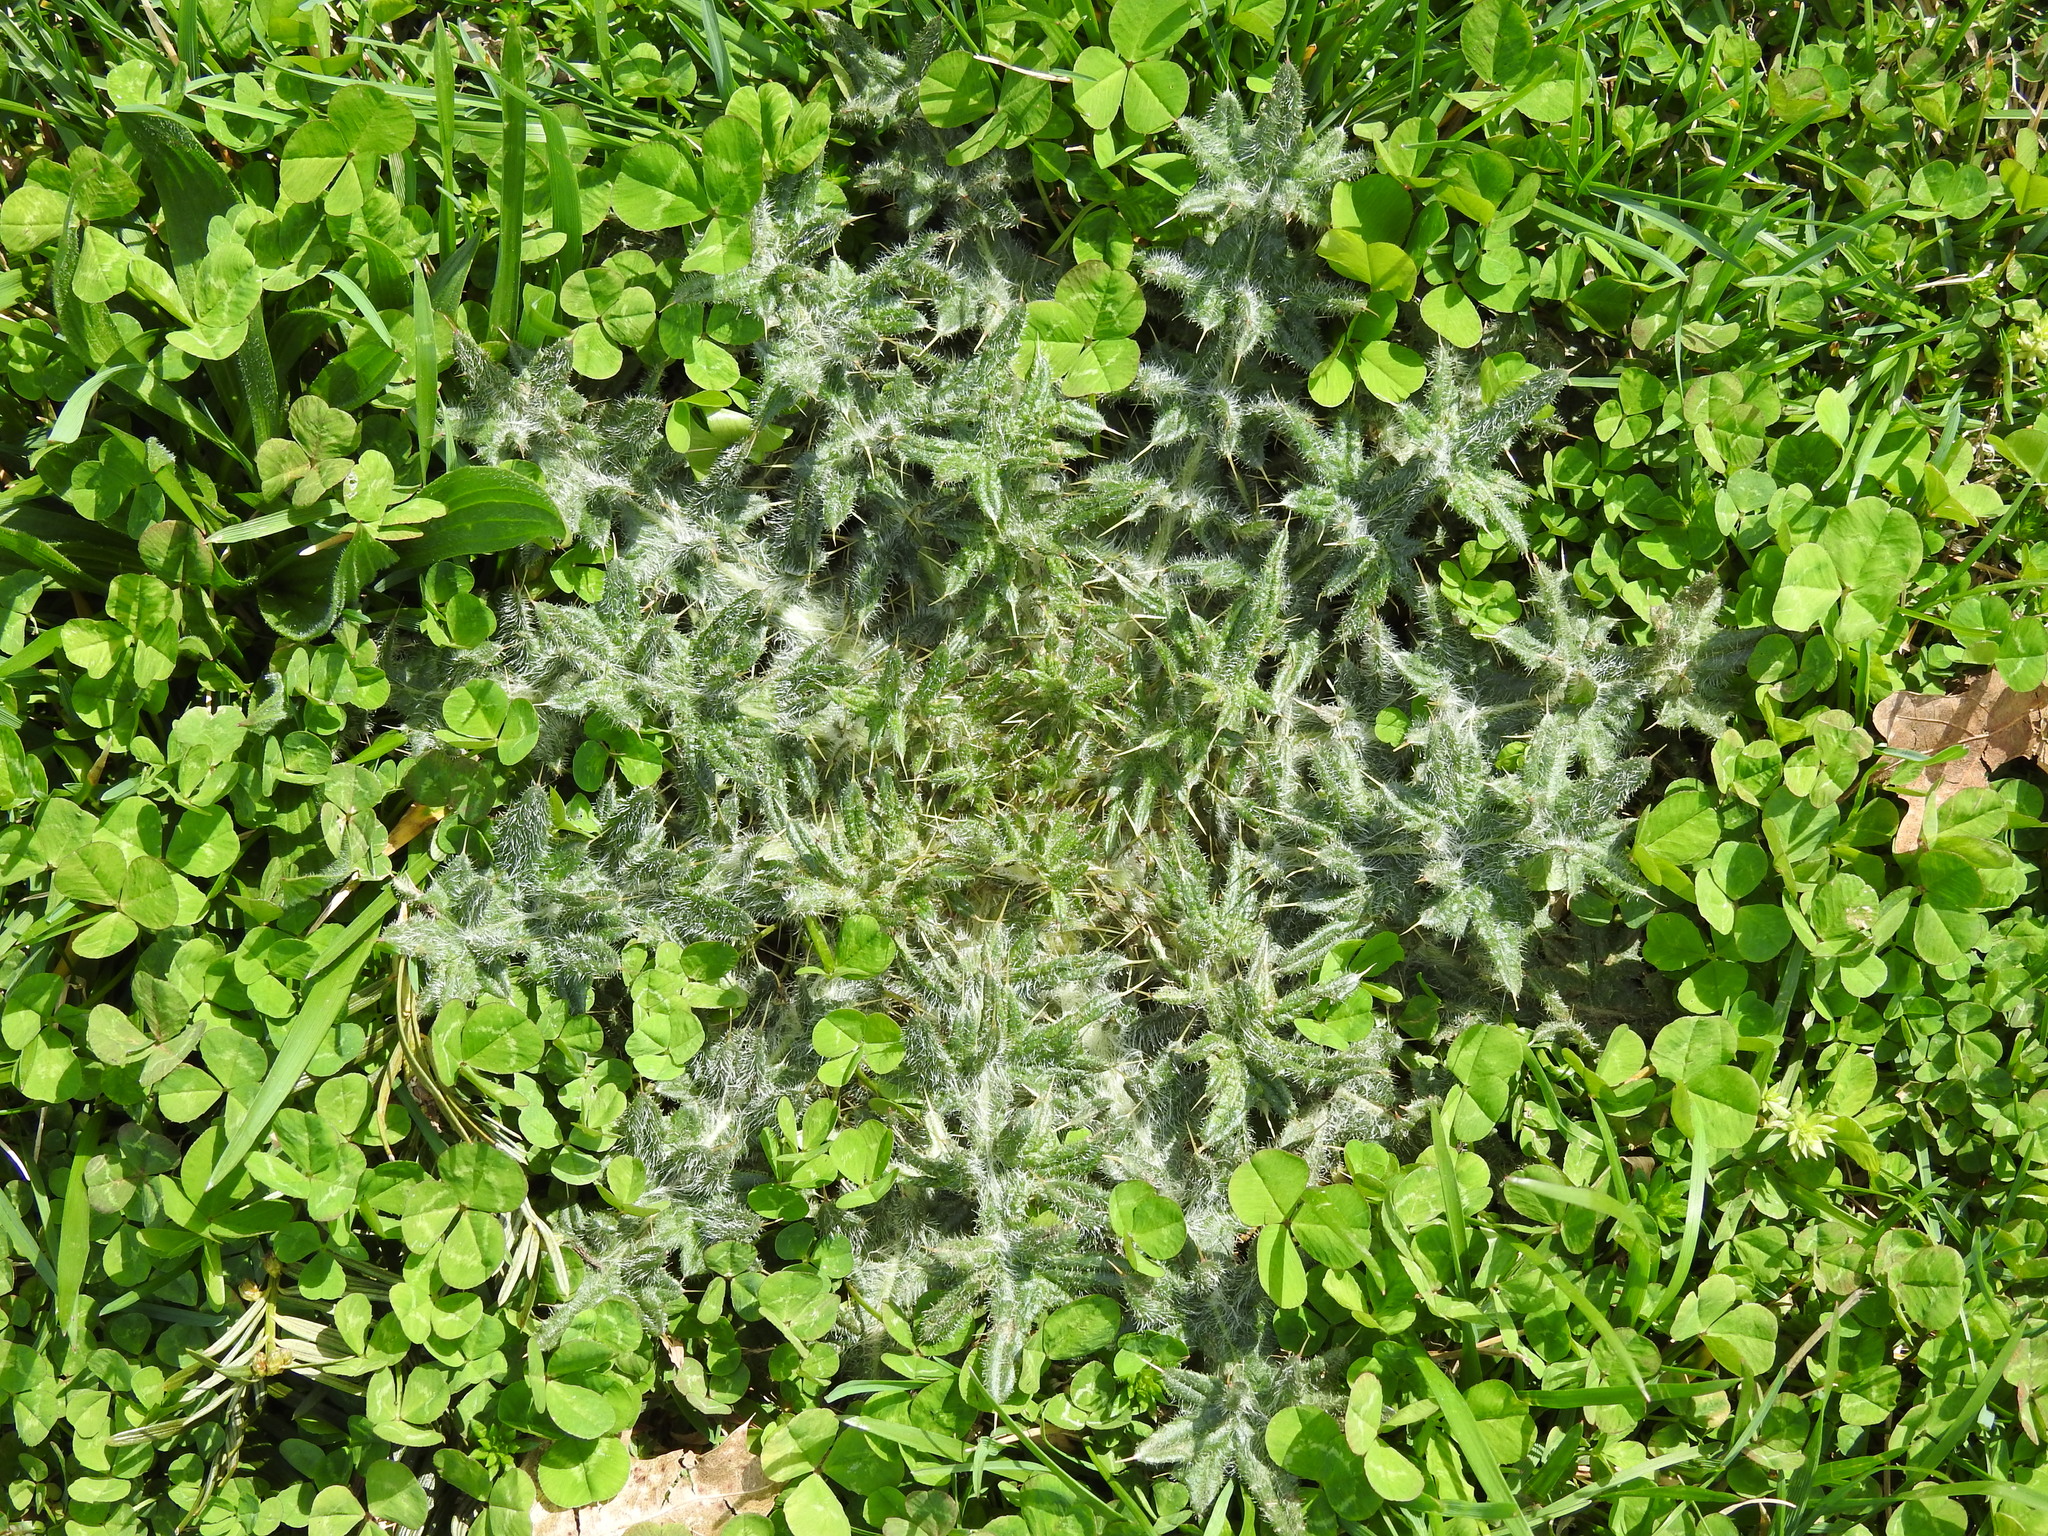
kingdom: Plantae
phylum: Tracheophyta
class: Magnoliopsida
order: Asterales
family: Asteraceae
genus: Cirsium
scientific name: Cirsium vulgare
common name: Bull thistle
